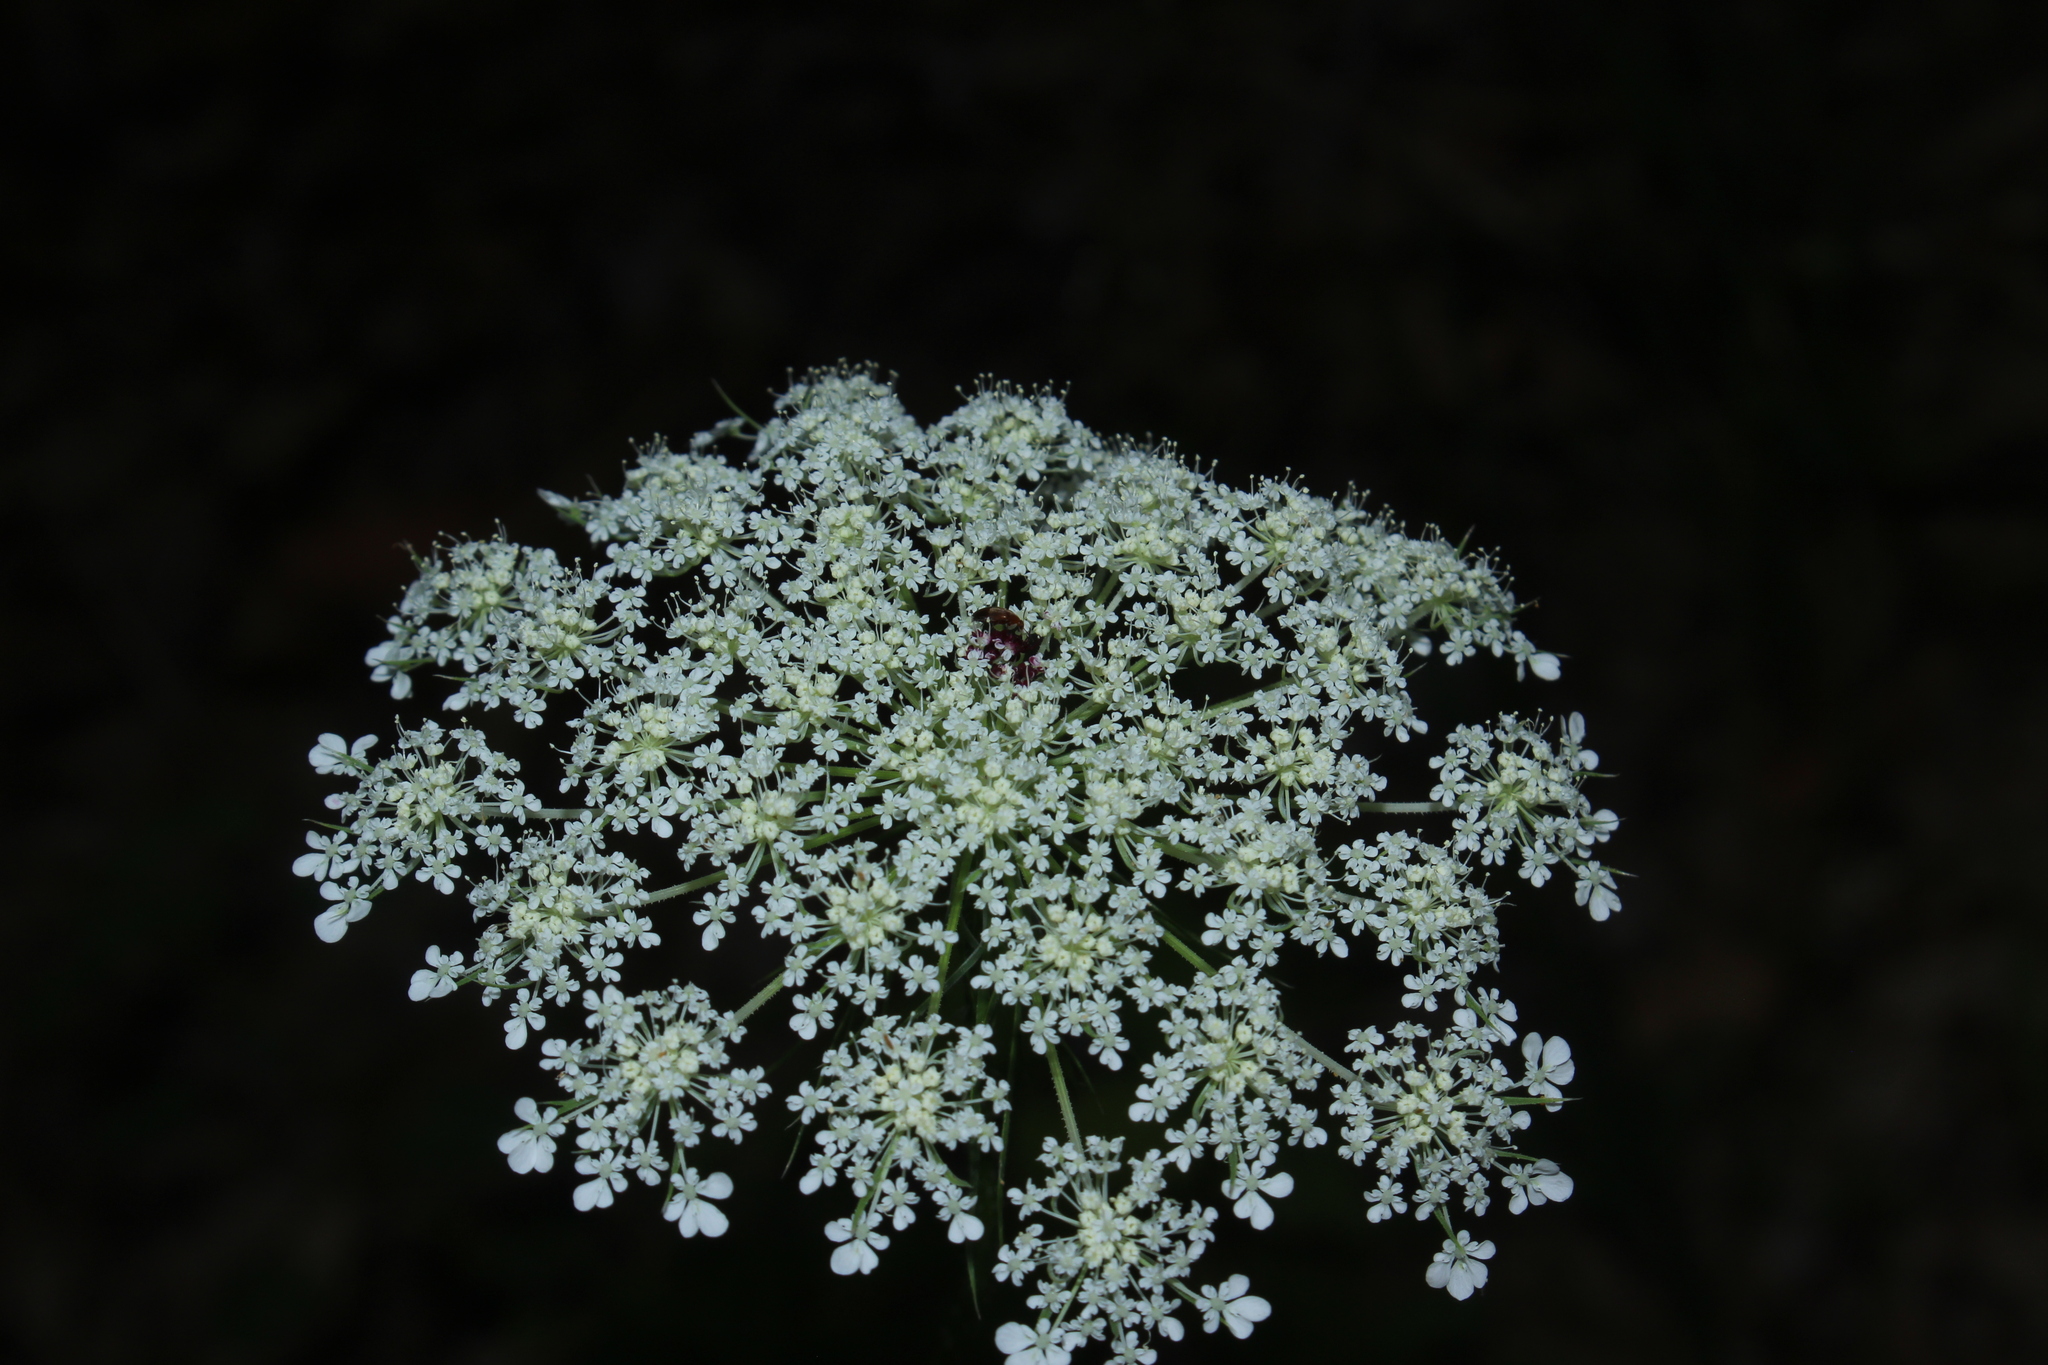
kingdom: Plantae
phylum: Tracheophyta
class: Magnoliopsida
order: Apiales
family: Apiaceae
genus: Daucus
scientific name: Daucus carota
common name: Wild carrot
